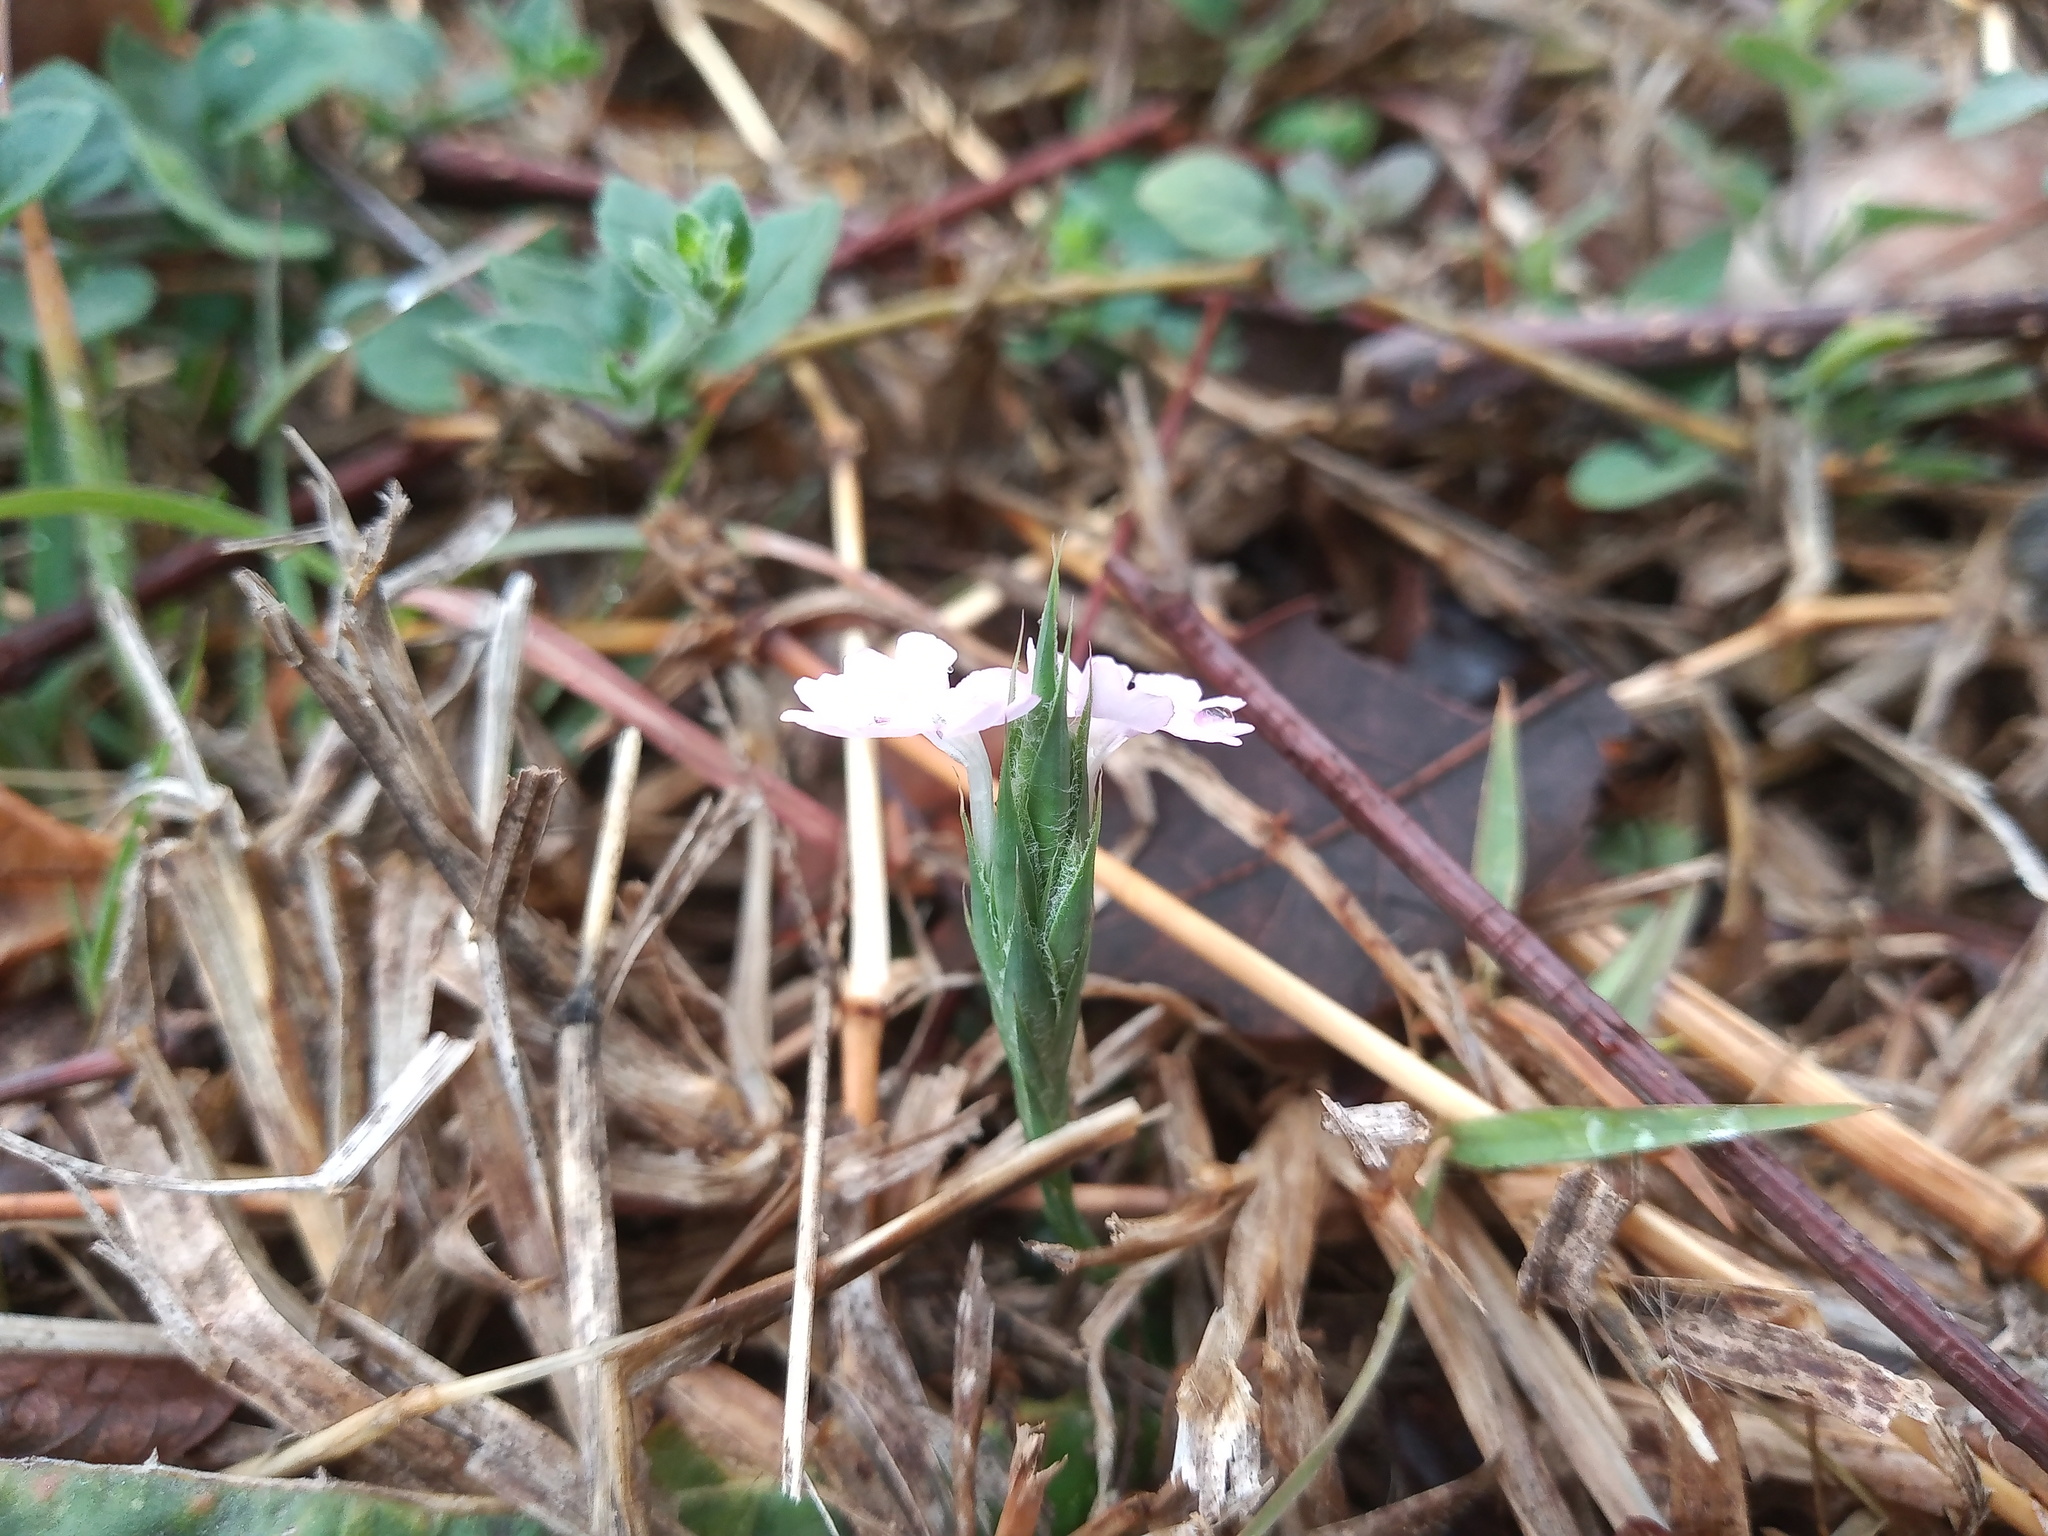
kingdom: Plantae
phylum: Tracheophyta
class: Magnoliopsida
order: Lamiales
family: Acanthaceae
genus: Elytraria
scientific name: Elytraria bromoides
